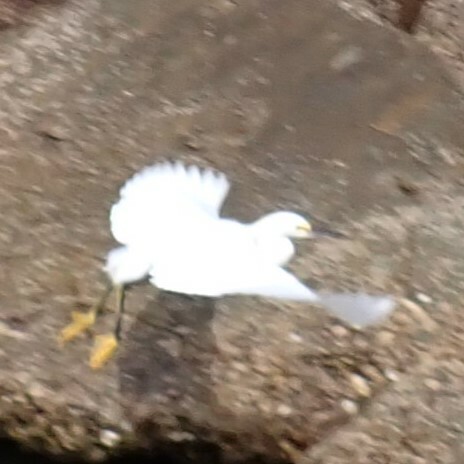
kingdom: Animalia
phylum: Chordata
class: Aves
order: Pelecaniformes
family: Ardeidae
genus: Egretta
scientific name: Egretta thula
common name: Snowy egret
